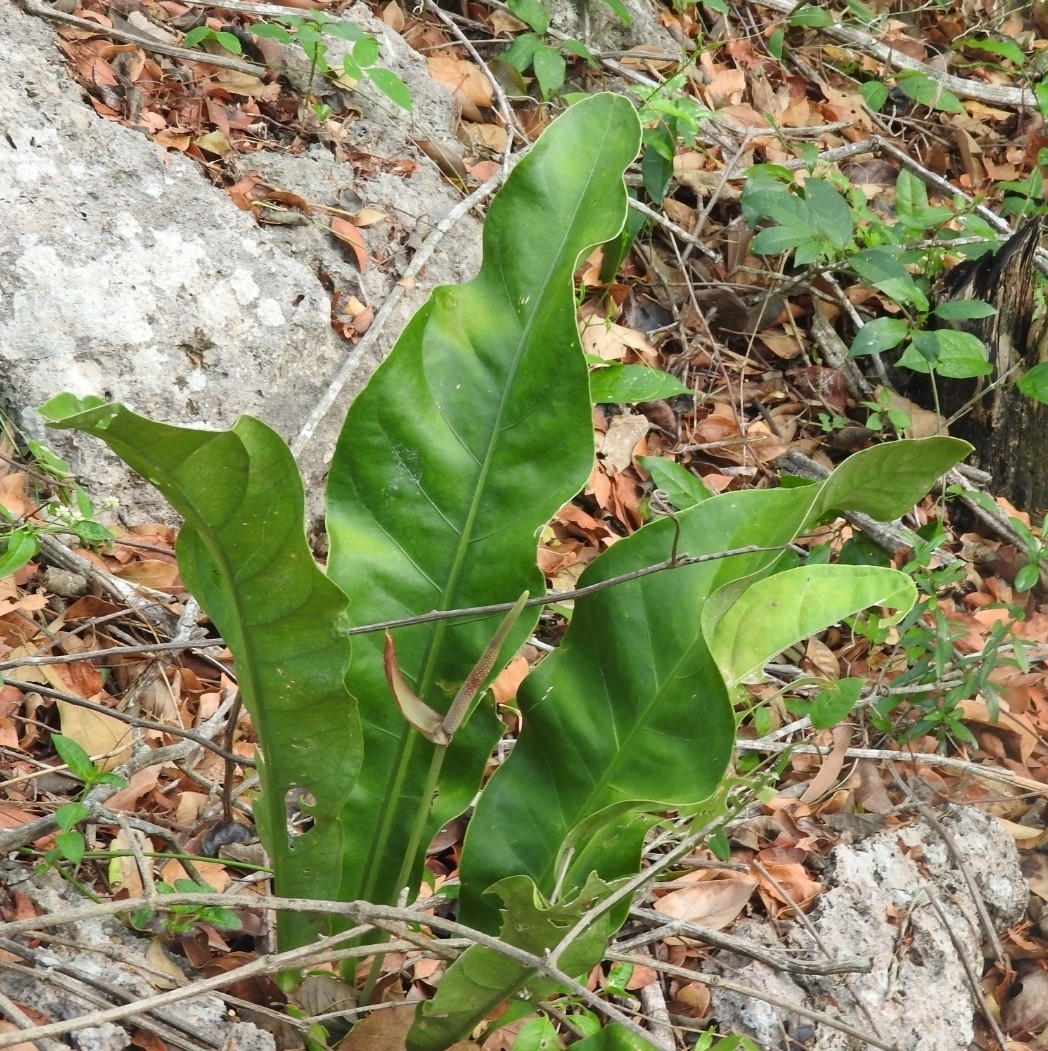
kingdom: Plantae
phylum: Tracheophyta
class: Liliopsida
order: Alismatales
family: Araceae
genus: Anthurium
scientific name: Anthurium schlechtendalii
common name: Laceleaf
